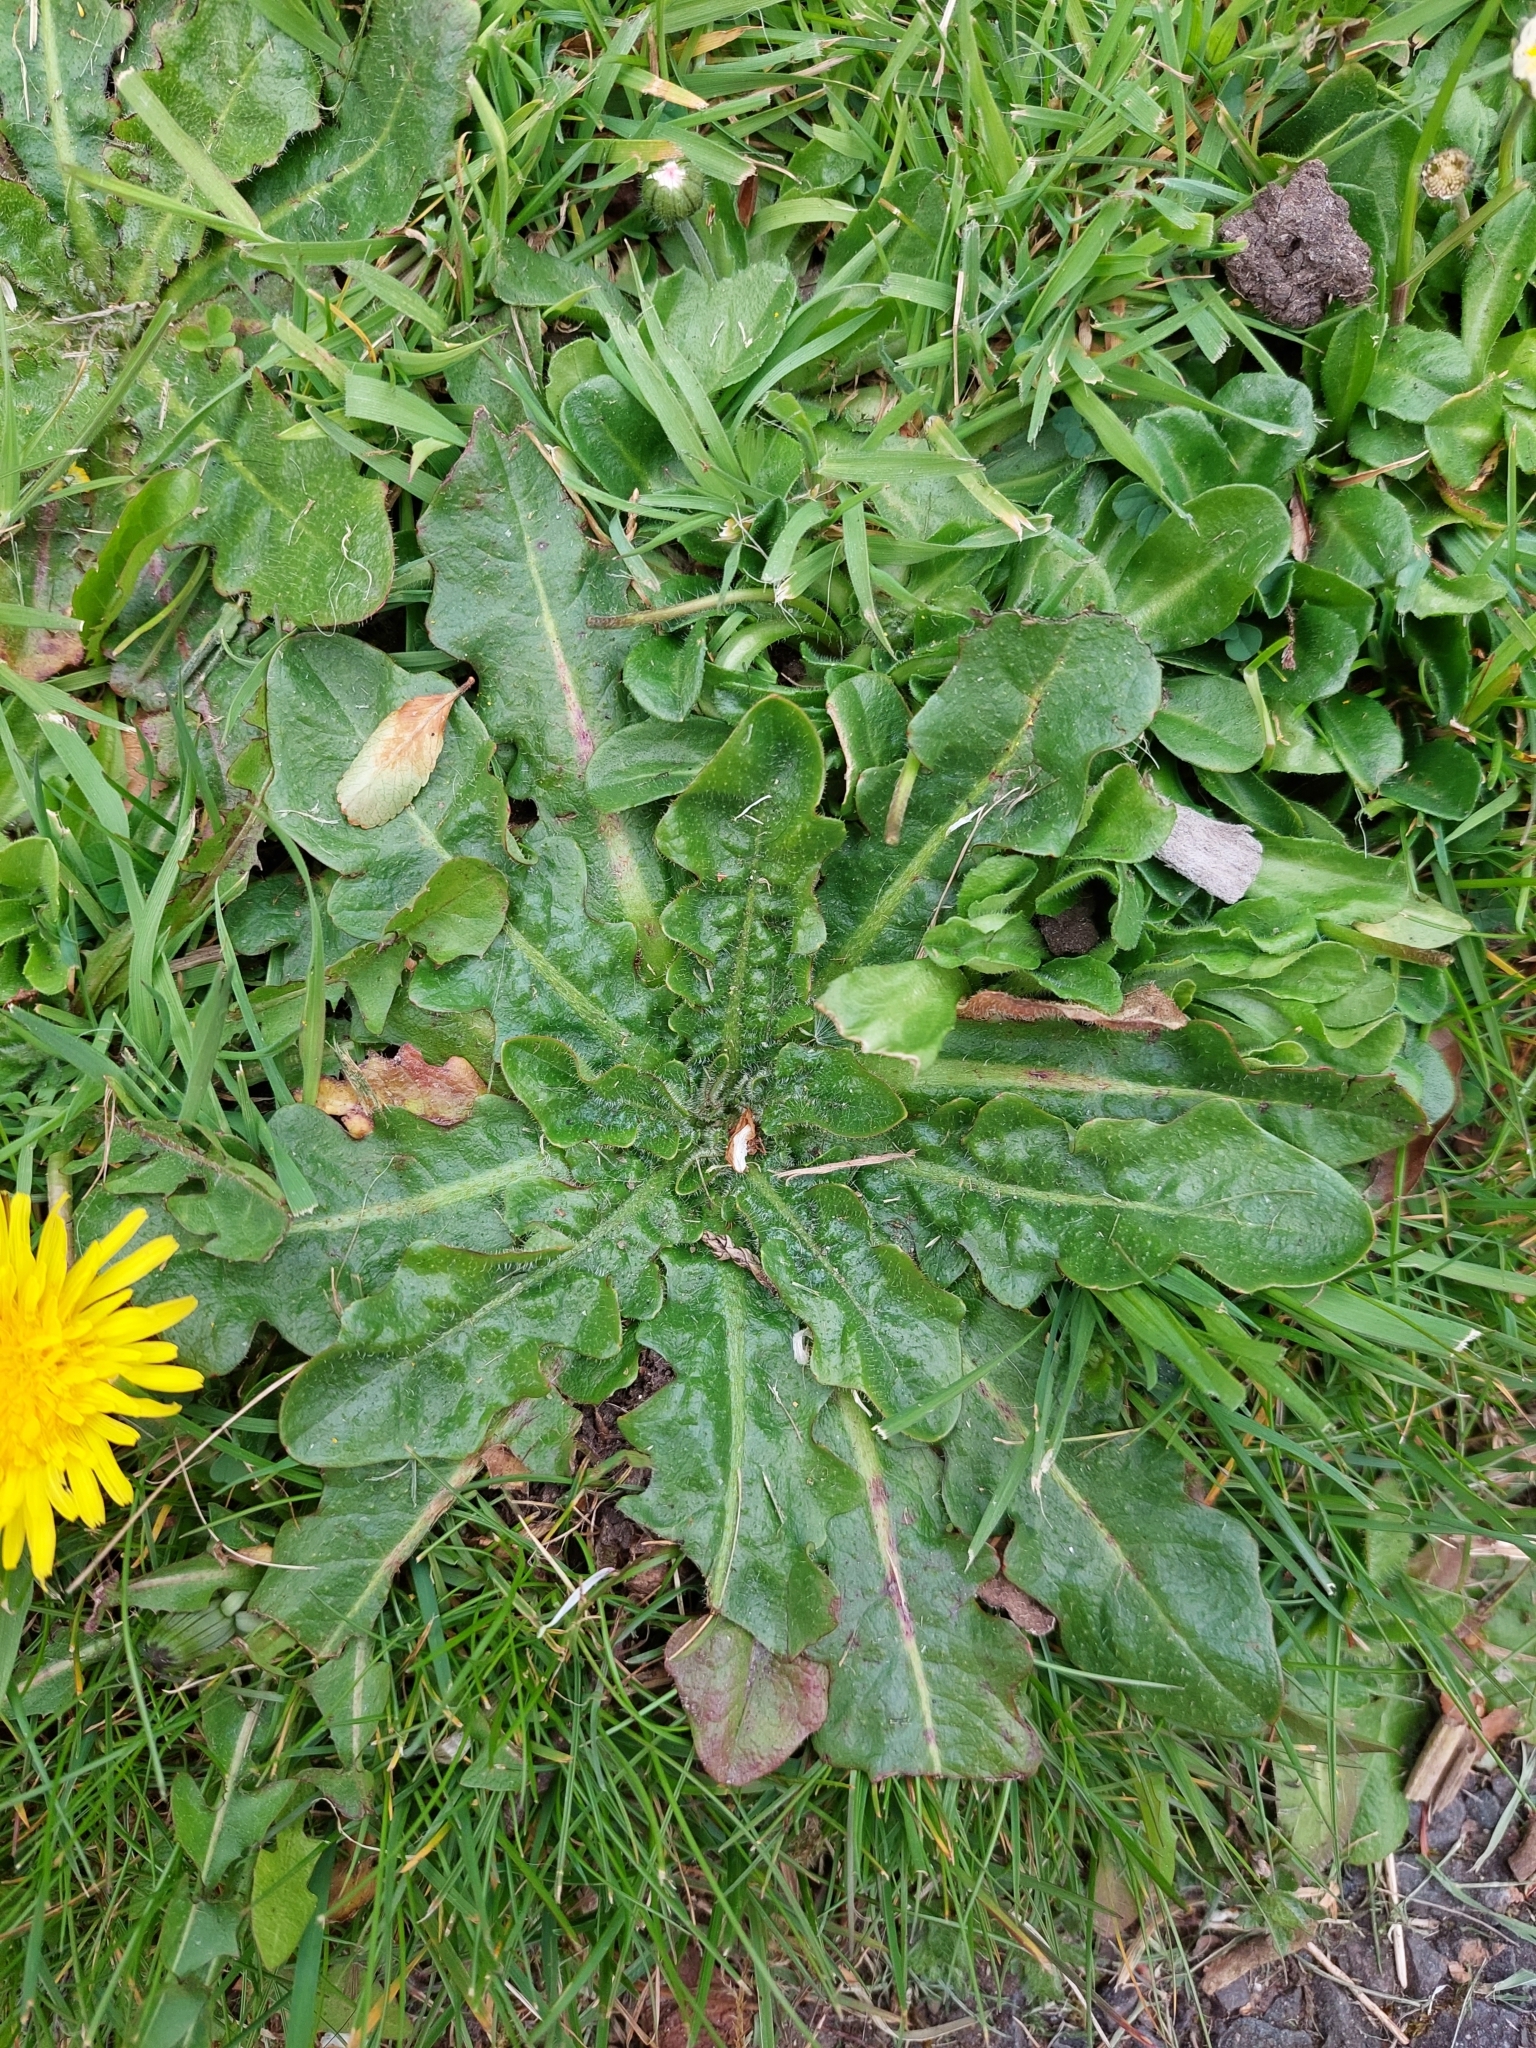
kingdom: Plantae
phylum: Tracheophyta
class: Magnoliopsida
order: Asterales
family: Asteraceae
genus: Hypochaeris
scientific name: Hypochaeris radicata
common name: Flatweed
